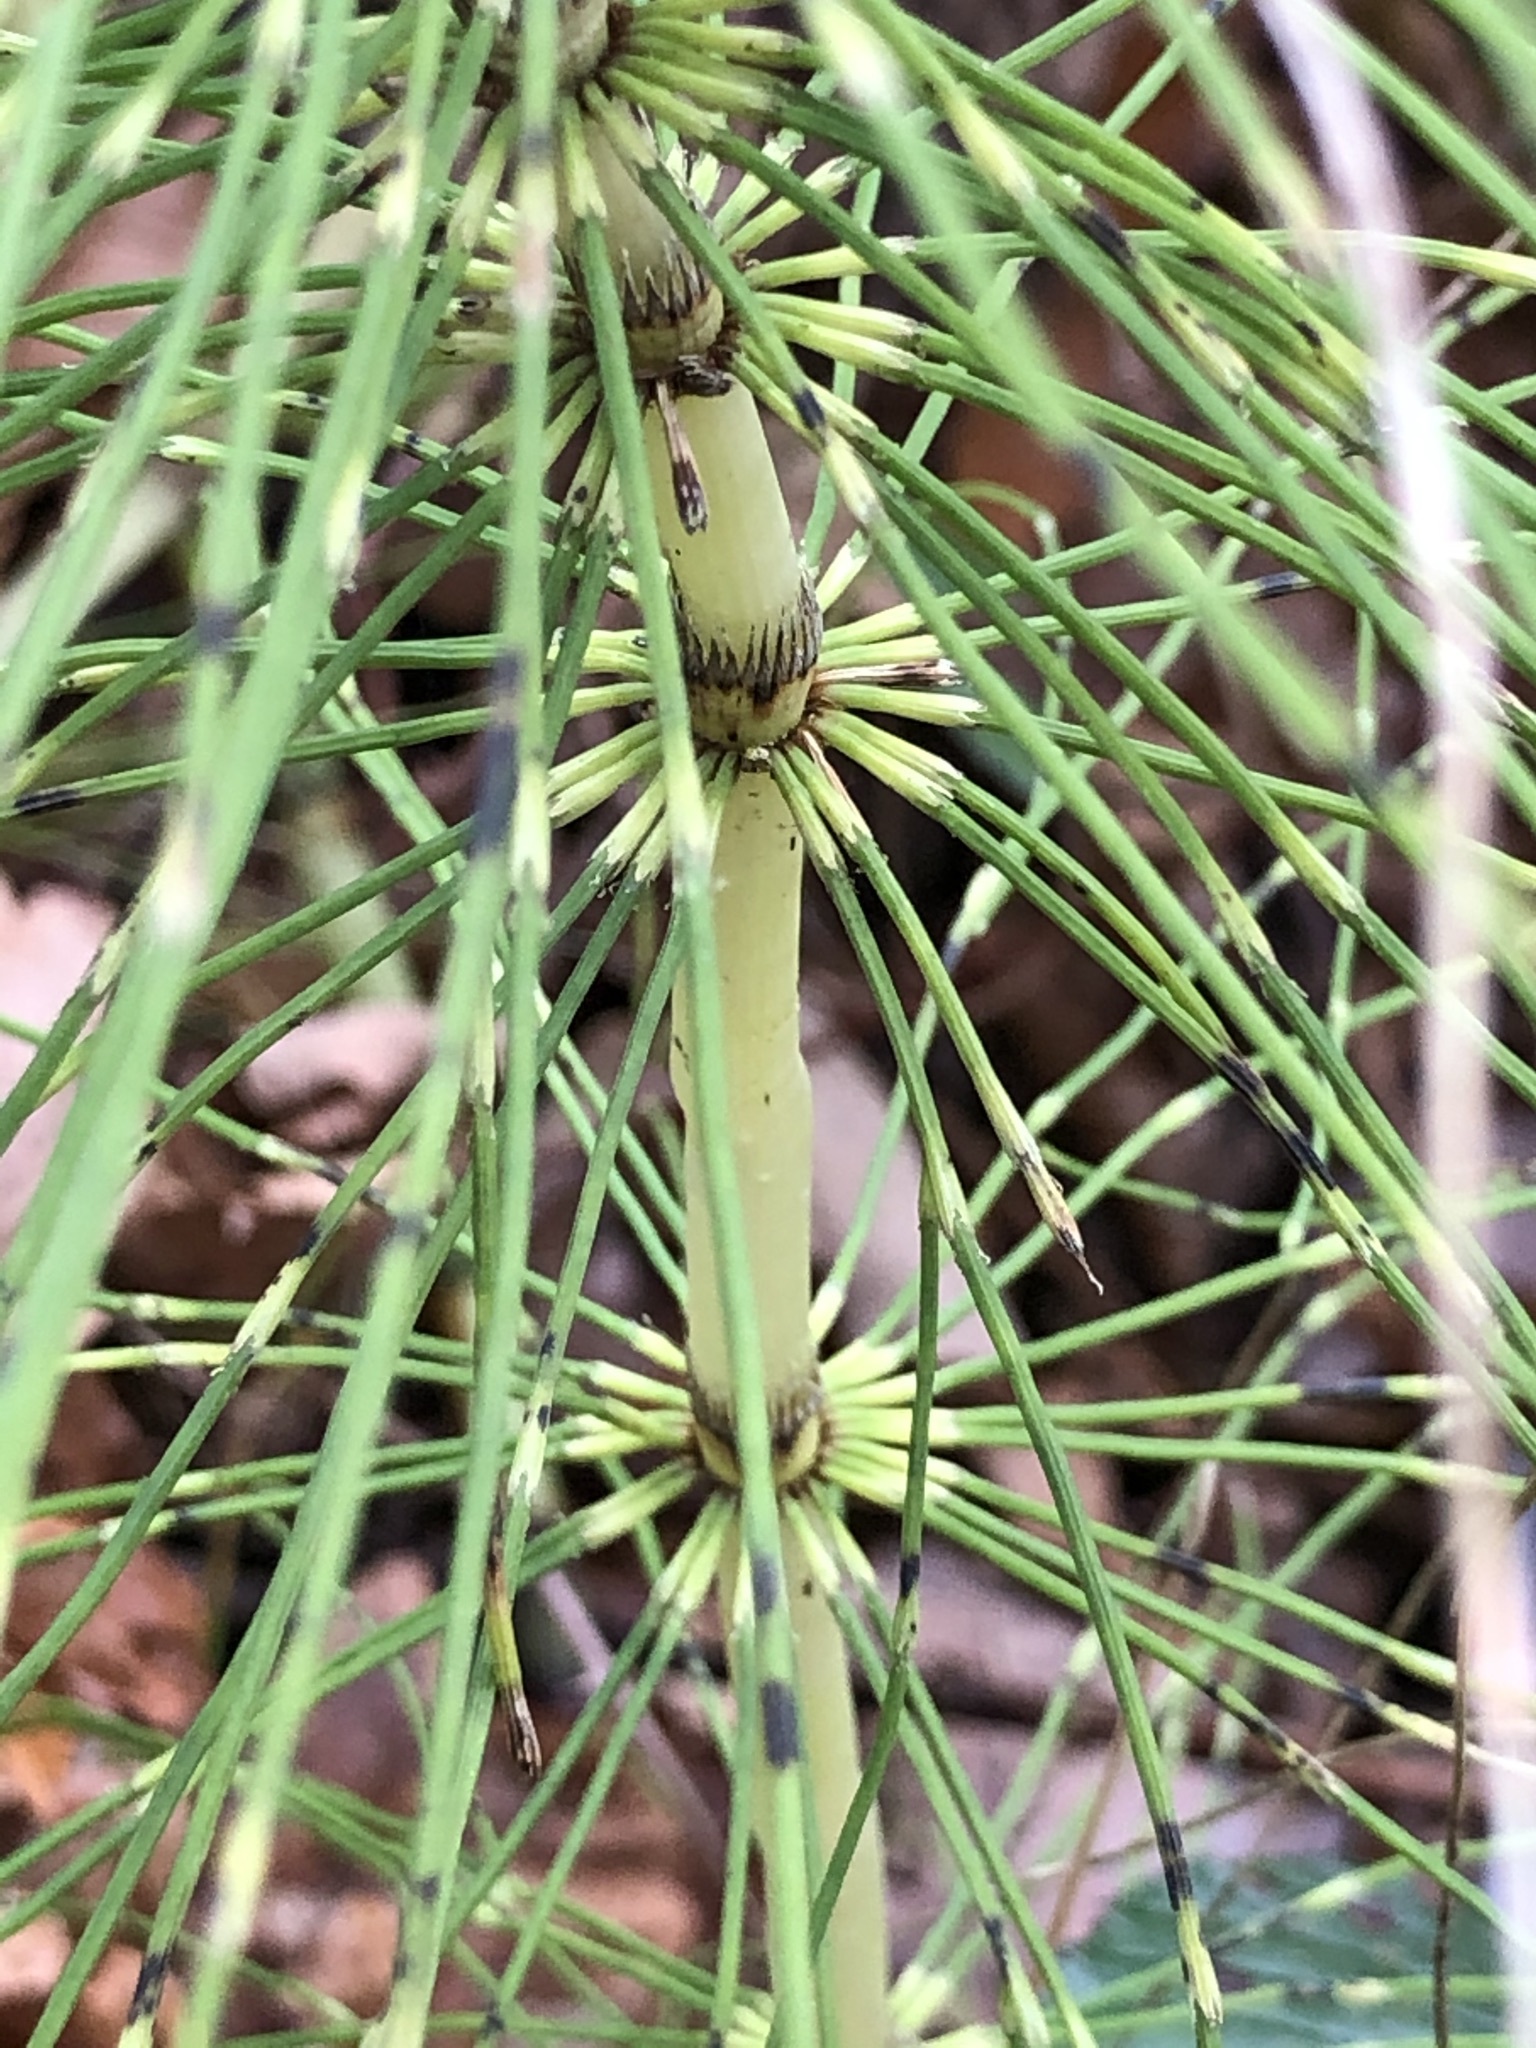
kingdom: Plantae
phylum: Tracheophyta
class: Polypodiopsida
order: Equisetales
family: Equisetaceae
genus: Equisetum
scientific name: Equisetum telmateia
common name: Great horsetail
